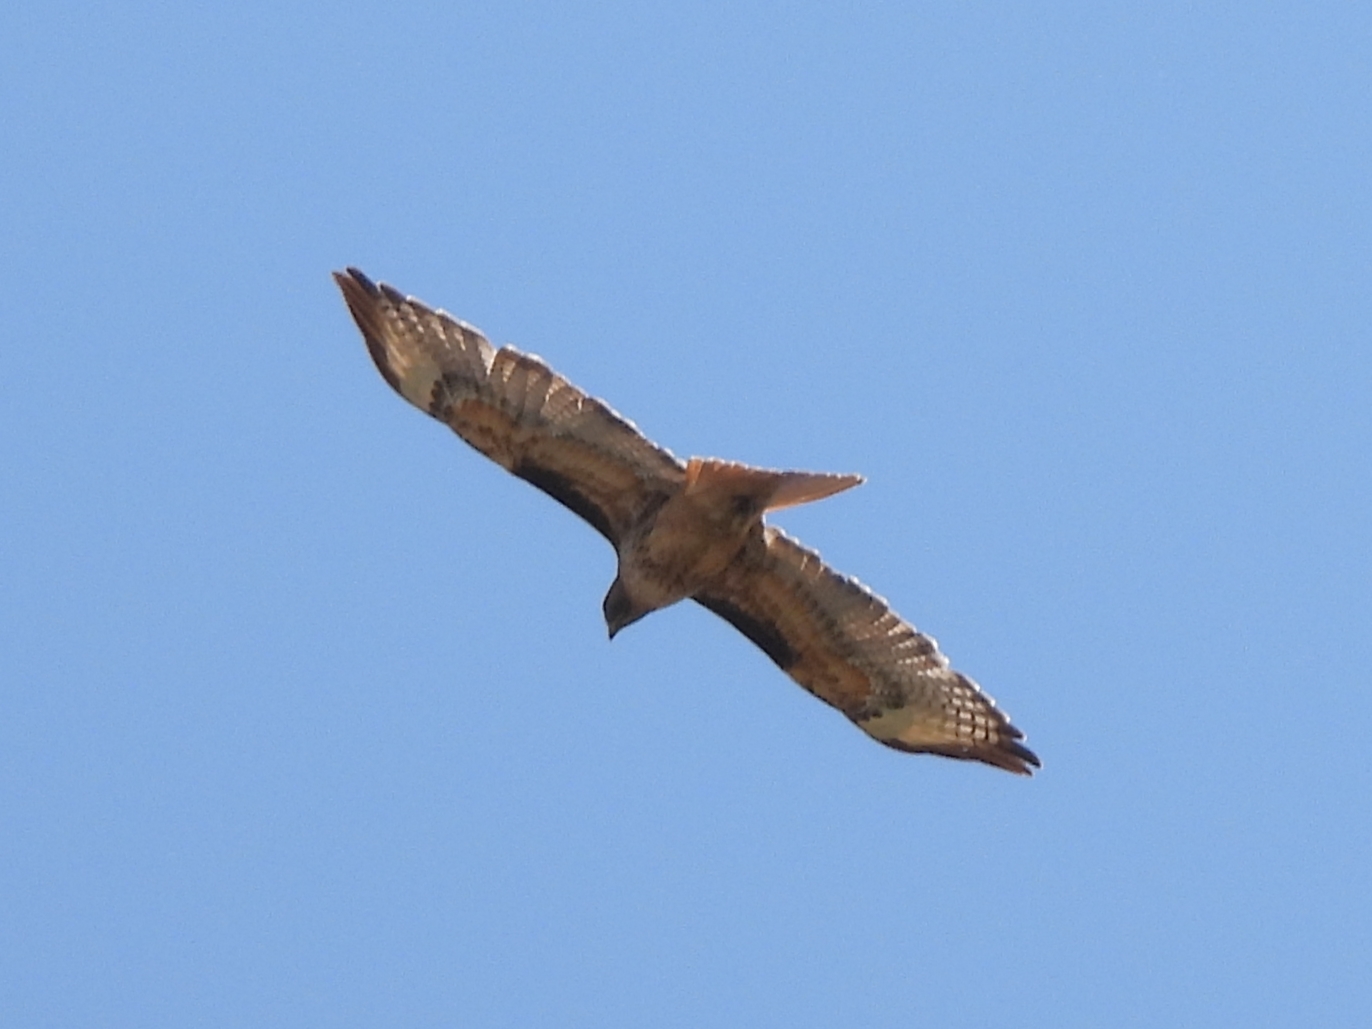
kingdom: Animalia
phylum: Chordata
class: Aves
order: Accipitriformes
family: Accipitridae
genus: Buteo
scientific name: Buteo jamaicensis
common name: Red-tailed hawk
